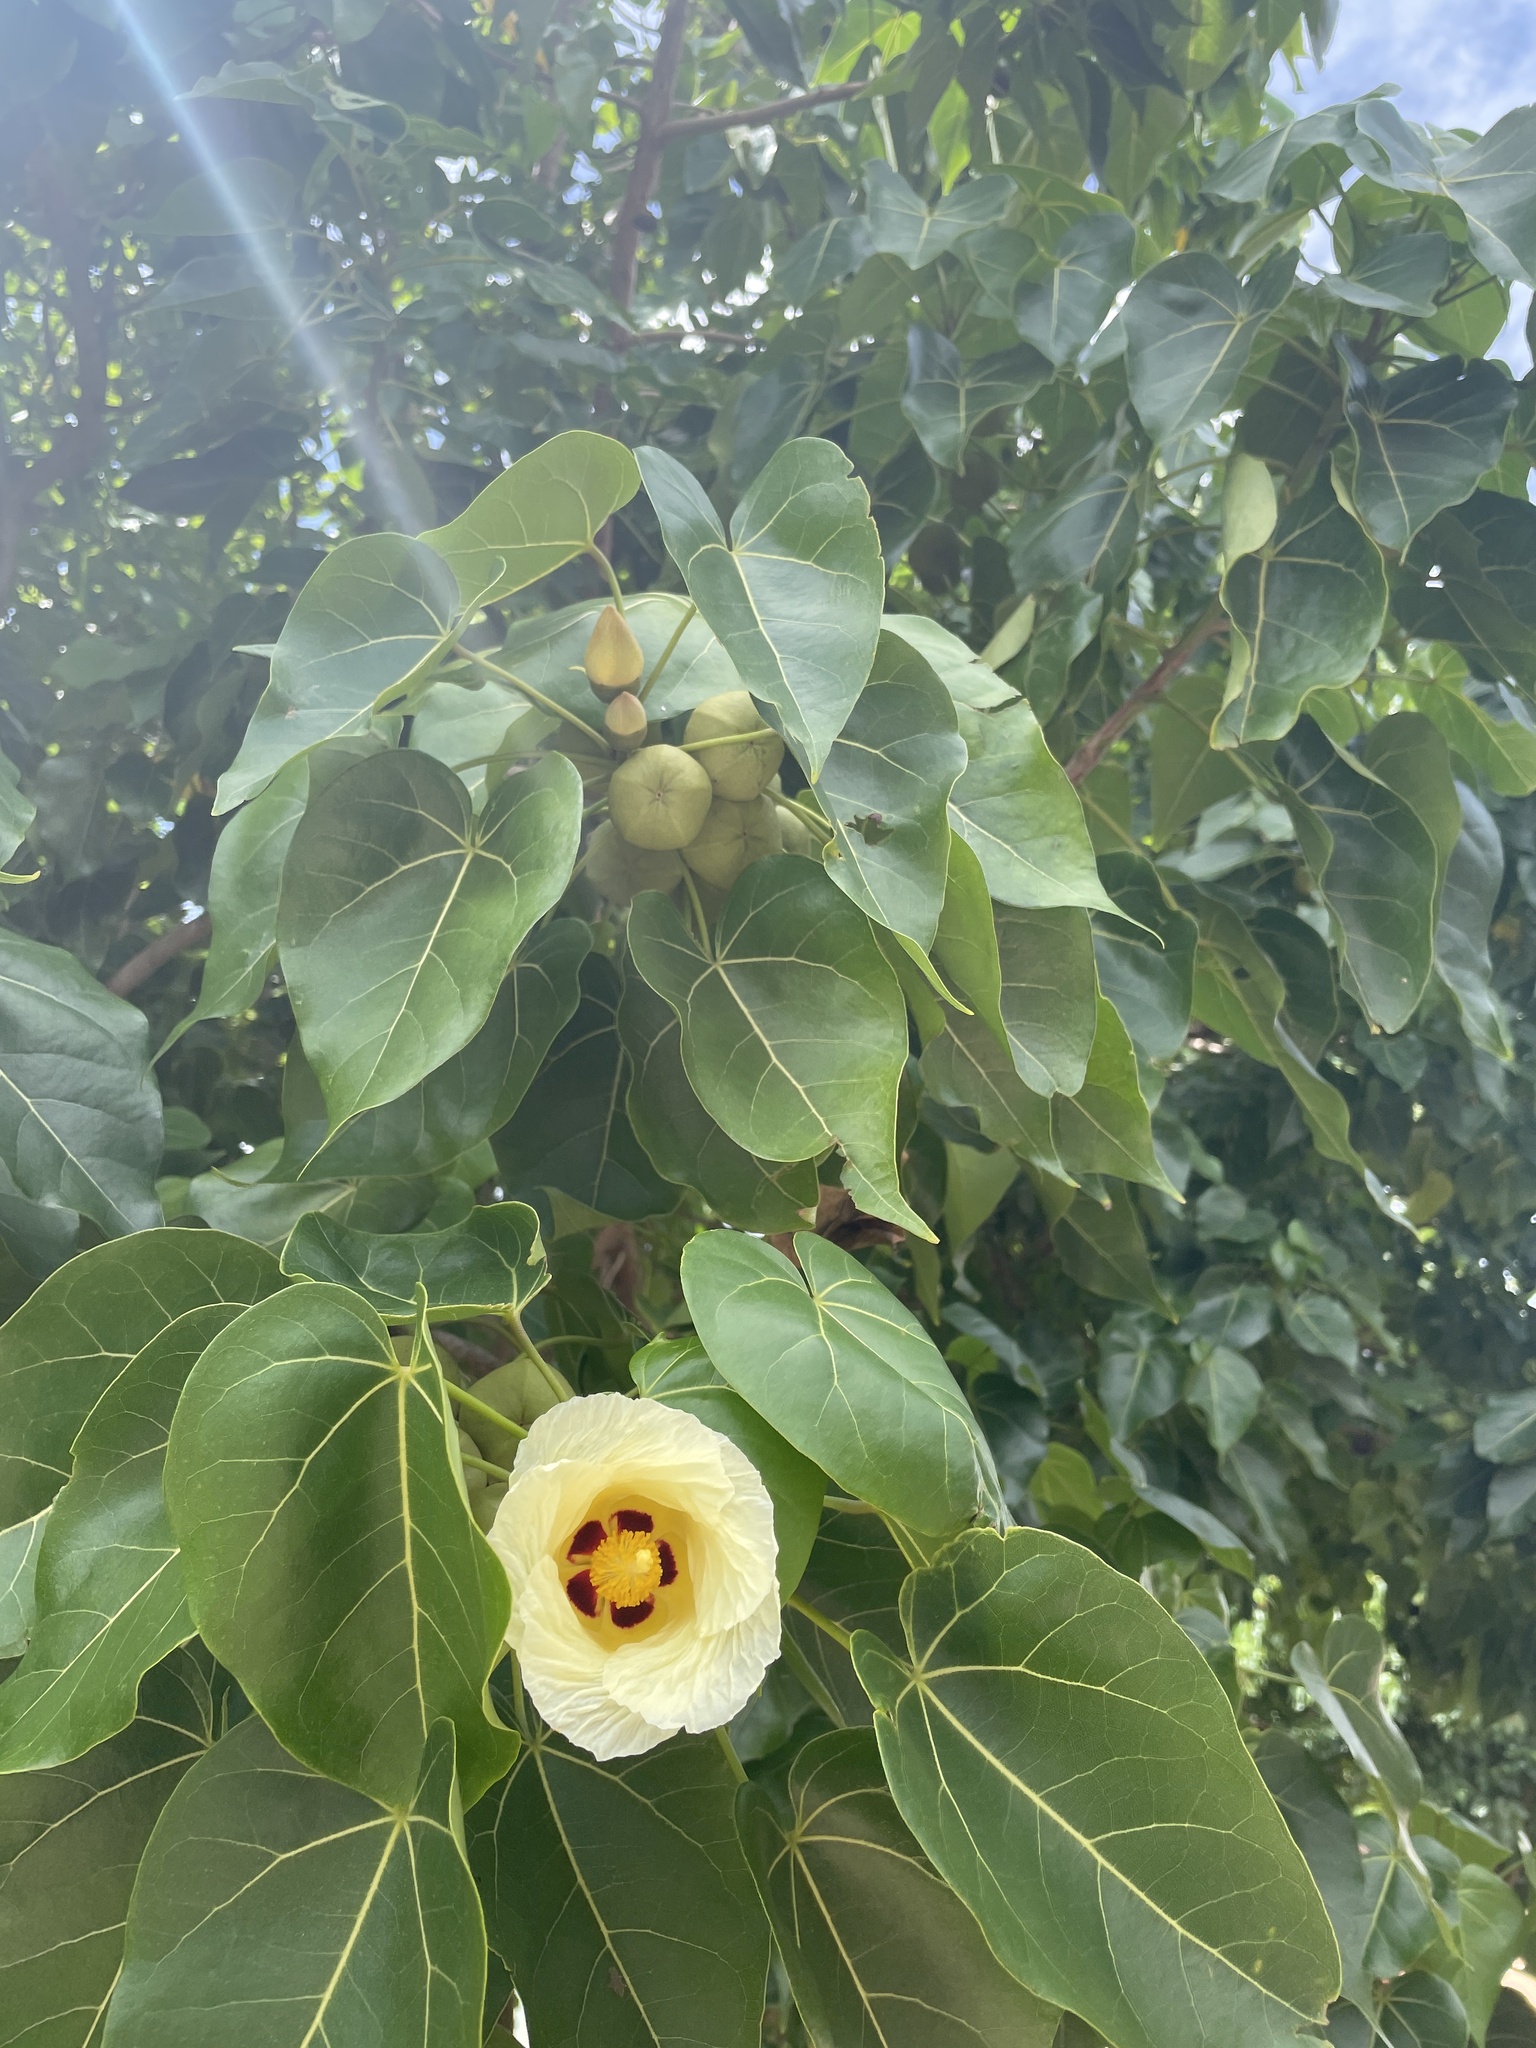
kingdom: Plantae
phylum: Tracheophyta
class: Magnoliopsida
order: Malvales
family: Malvaceae
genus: Thespesia
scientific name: Thespesia populnea
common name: Seaside mahoe
